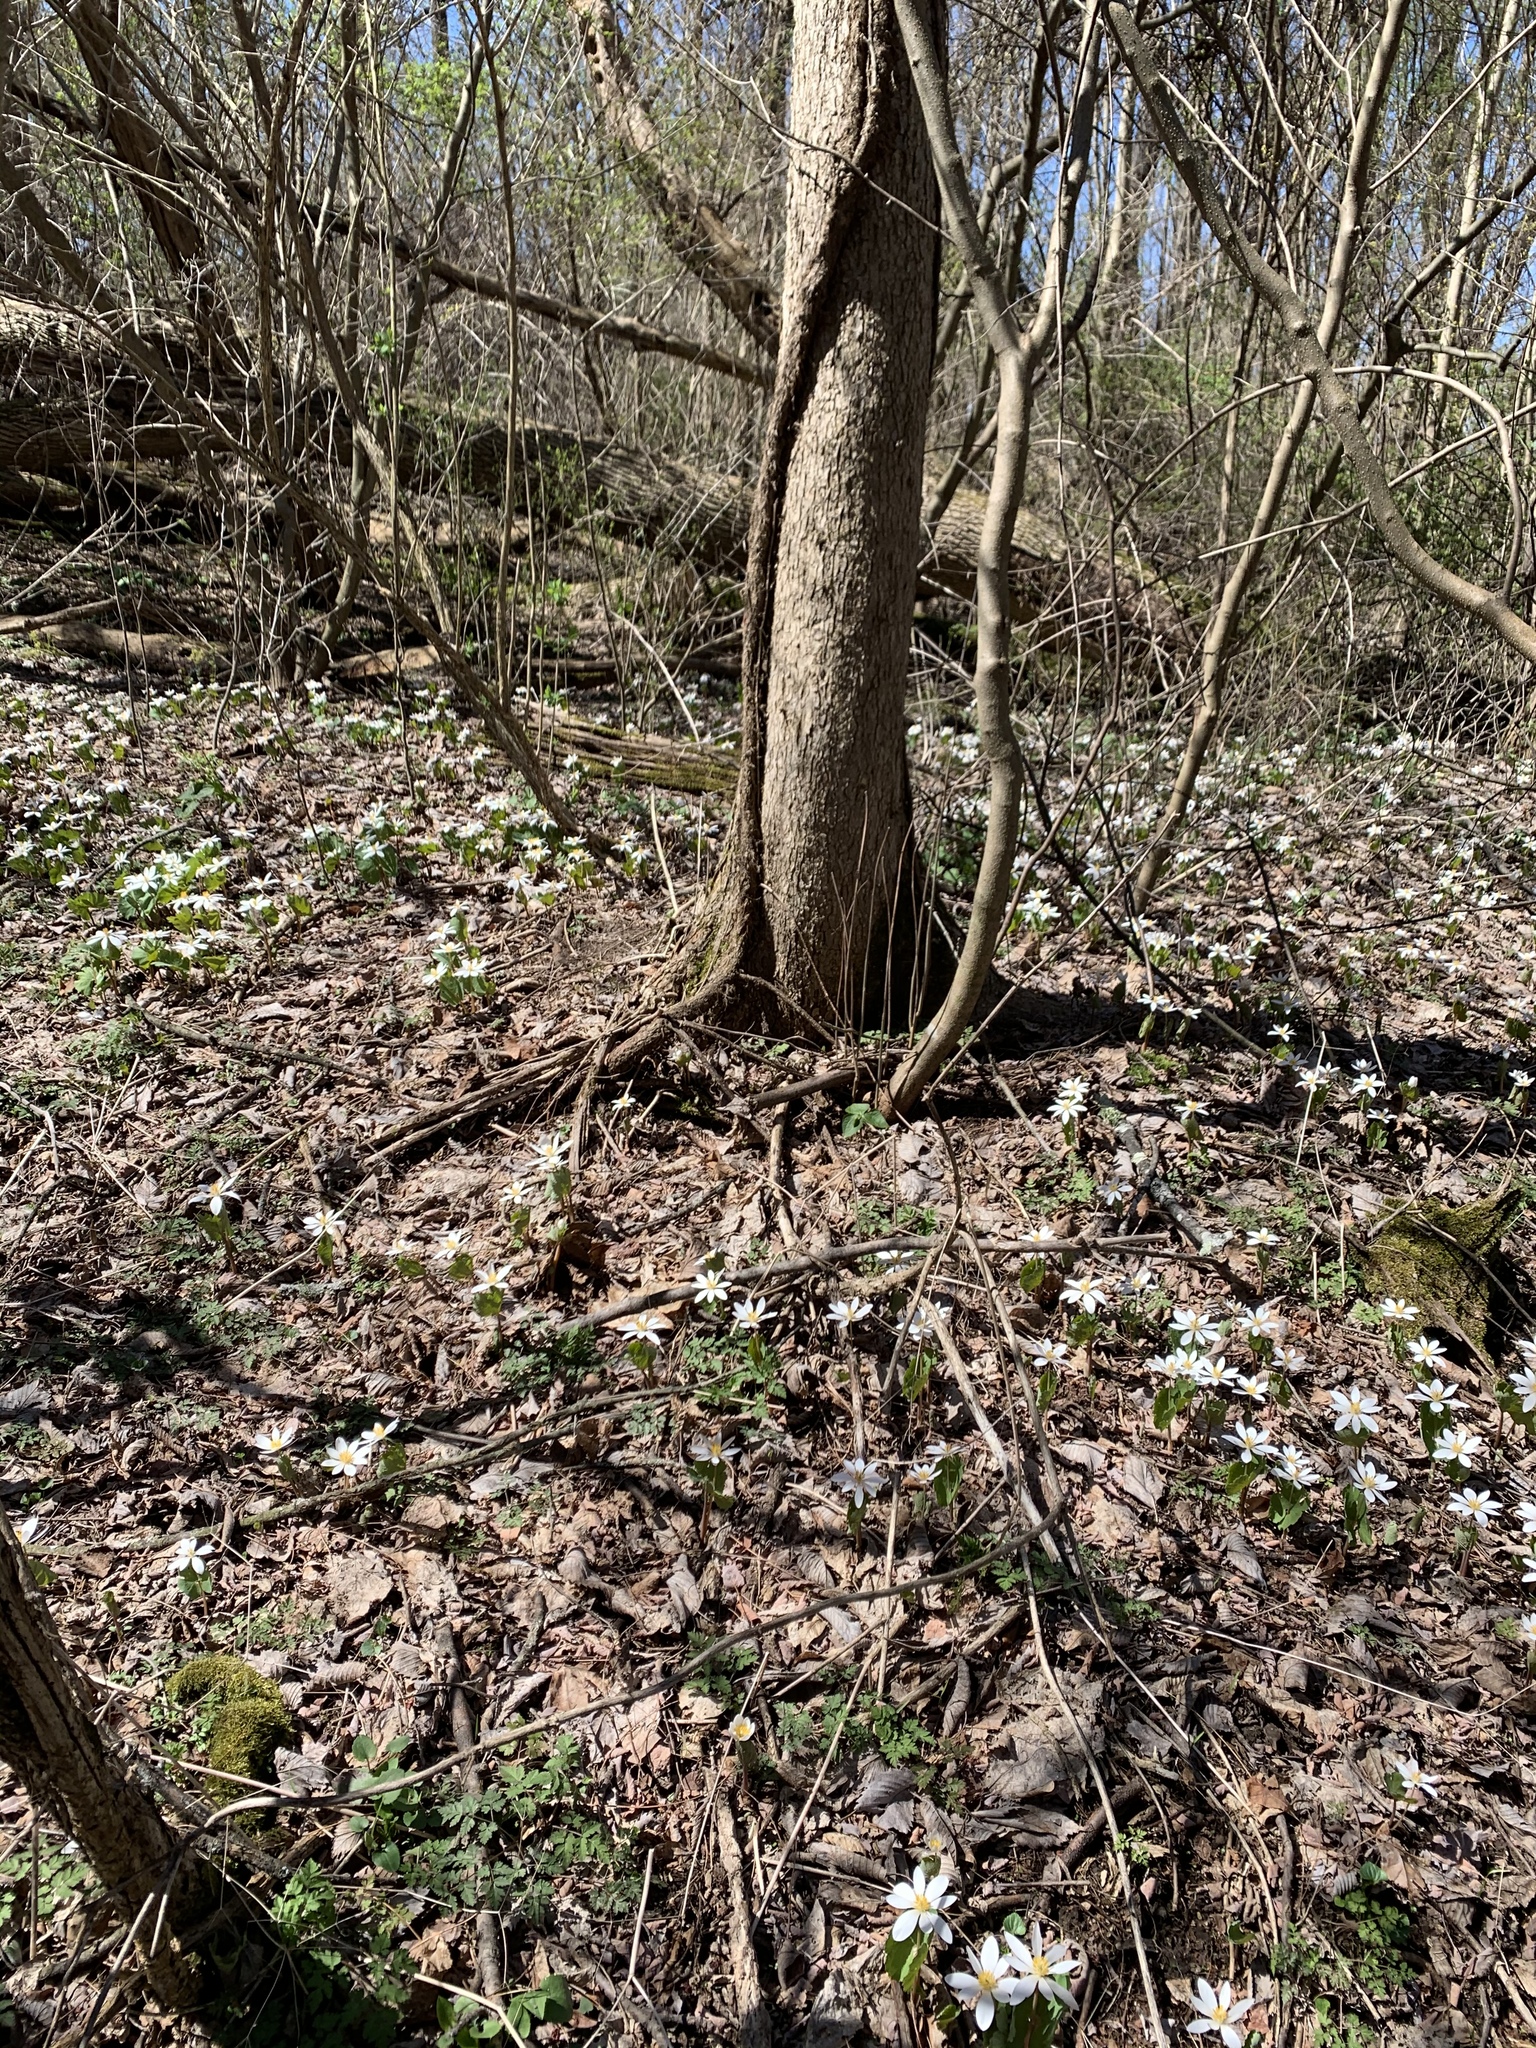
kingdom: Plantae
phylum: Tracheophyta
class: Magnoliopsida
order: Ranunculales
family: Papaveraceae
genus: Sanguinaria
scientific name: Sanguinaria canadensis
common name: Bloodroot
